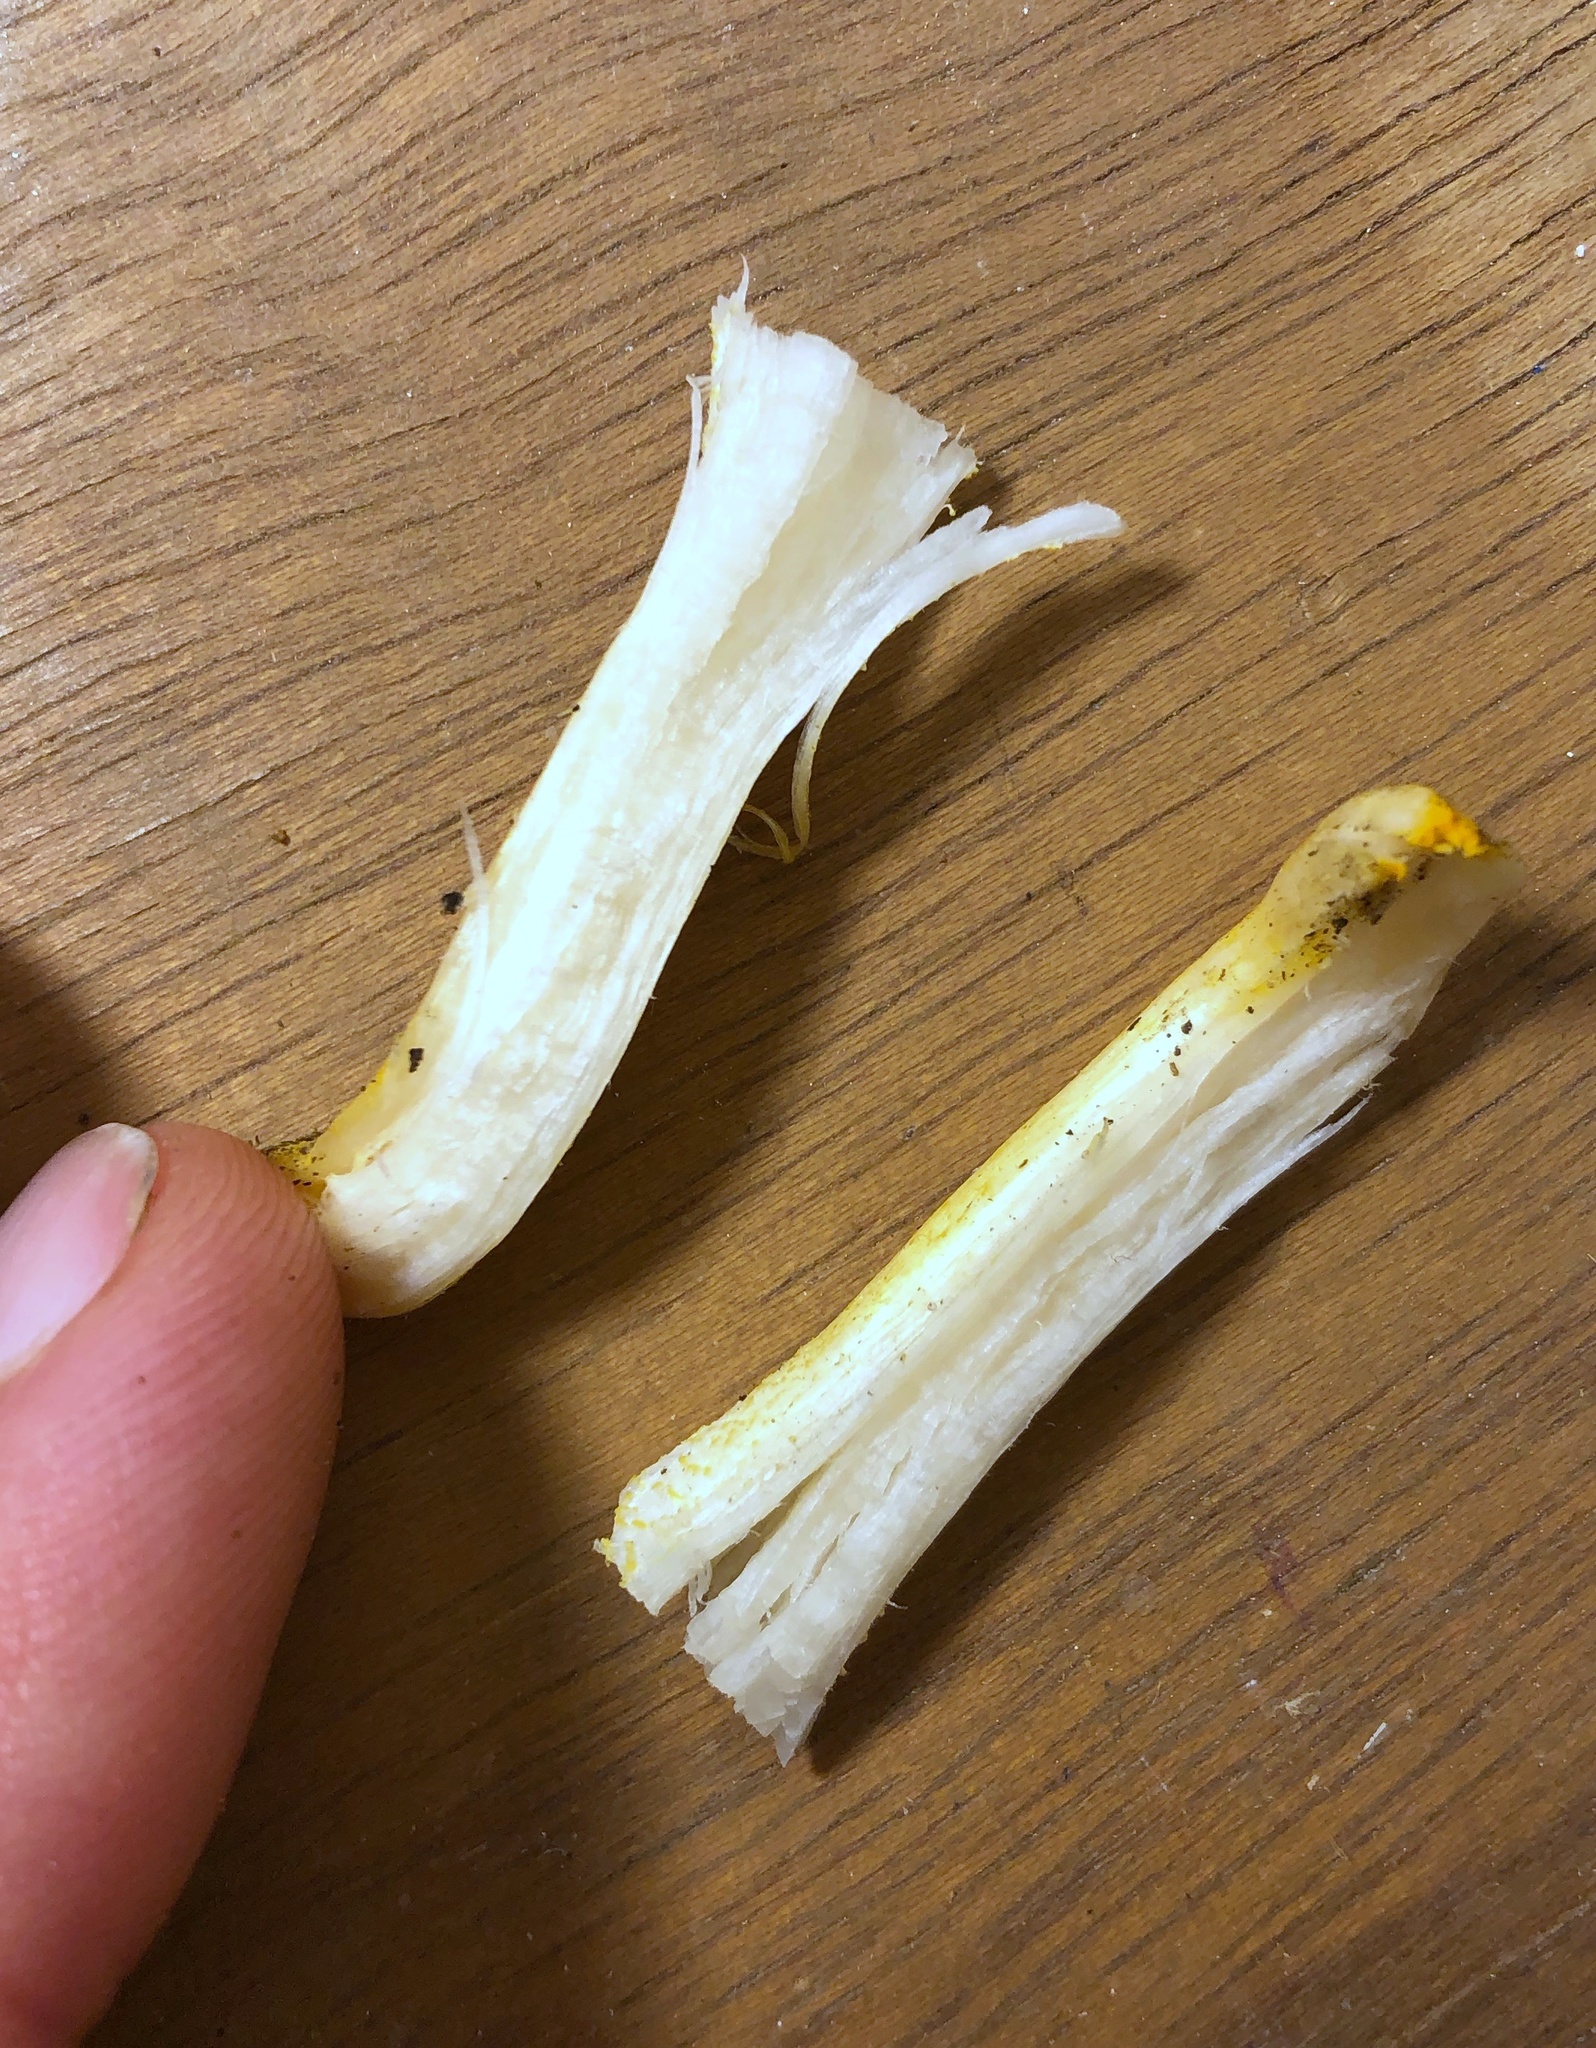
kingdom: Fungi
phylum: Basidiomycota
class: Agaricomycetes
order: Agaricales
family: Hygrophoraceae
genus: Hygrophorus
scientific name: Hygrophorus chrysodon
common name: Gold flecked woodwax
